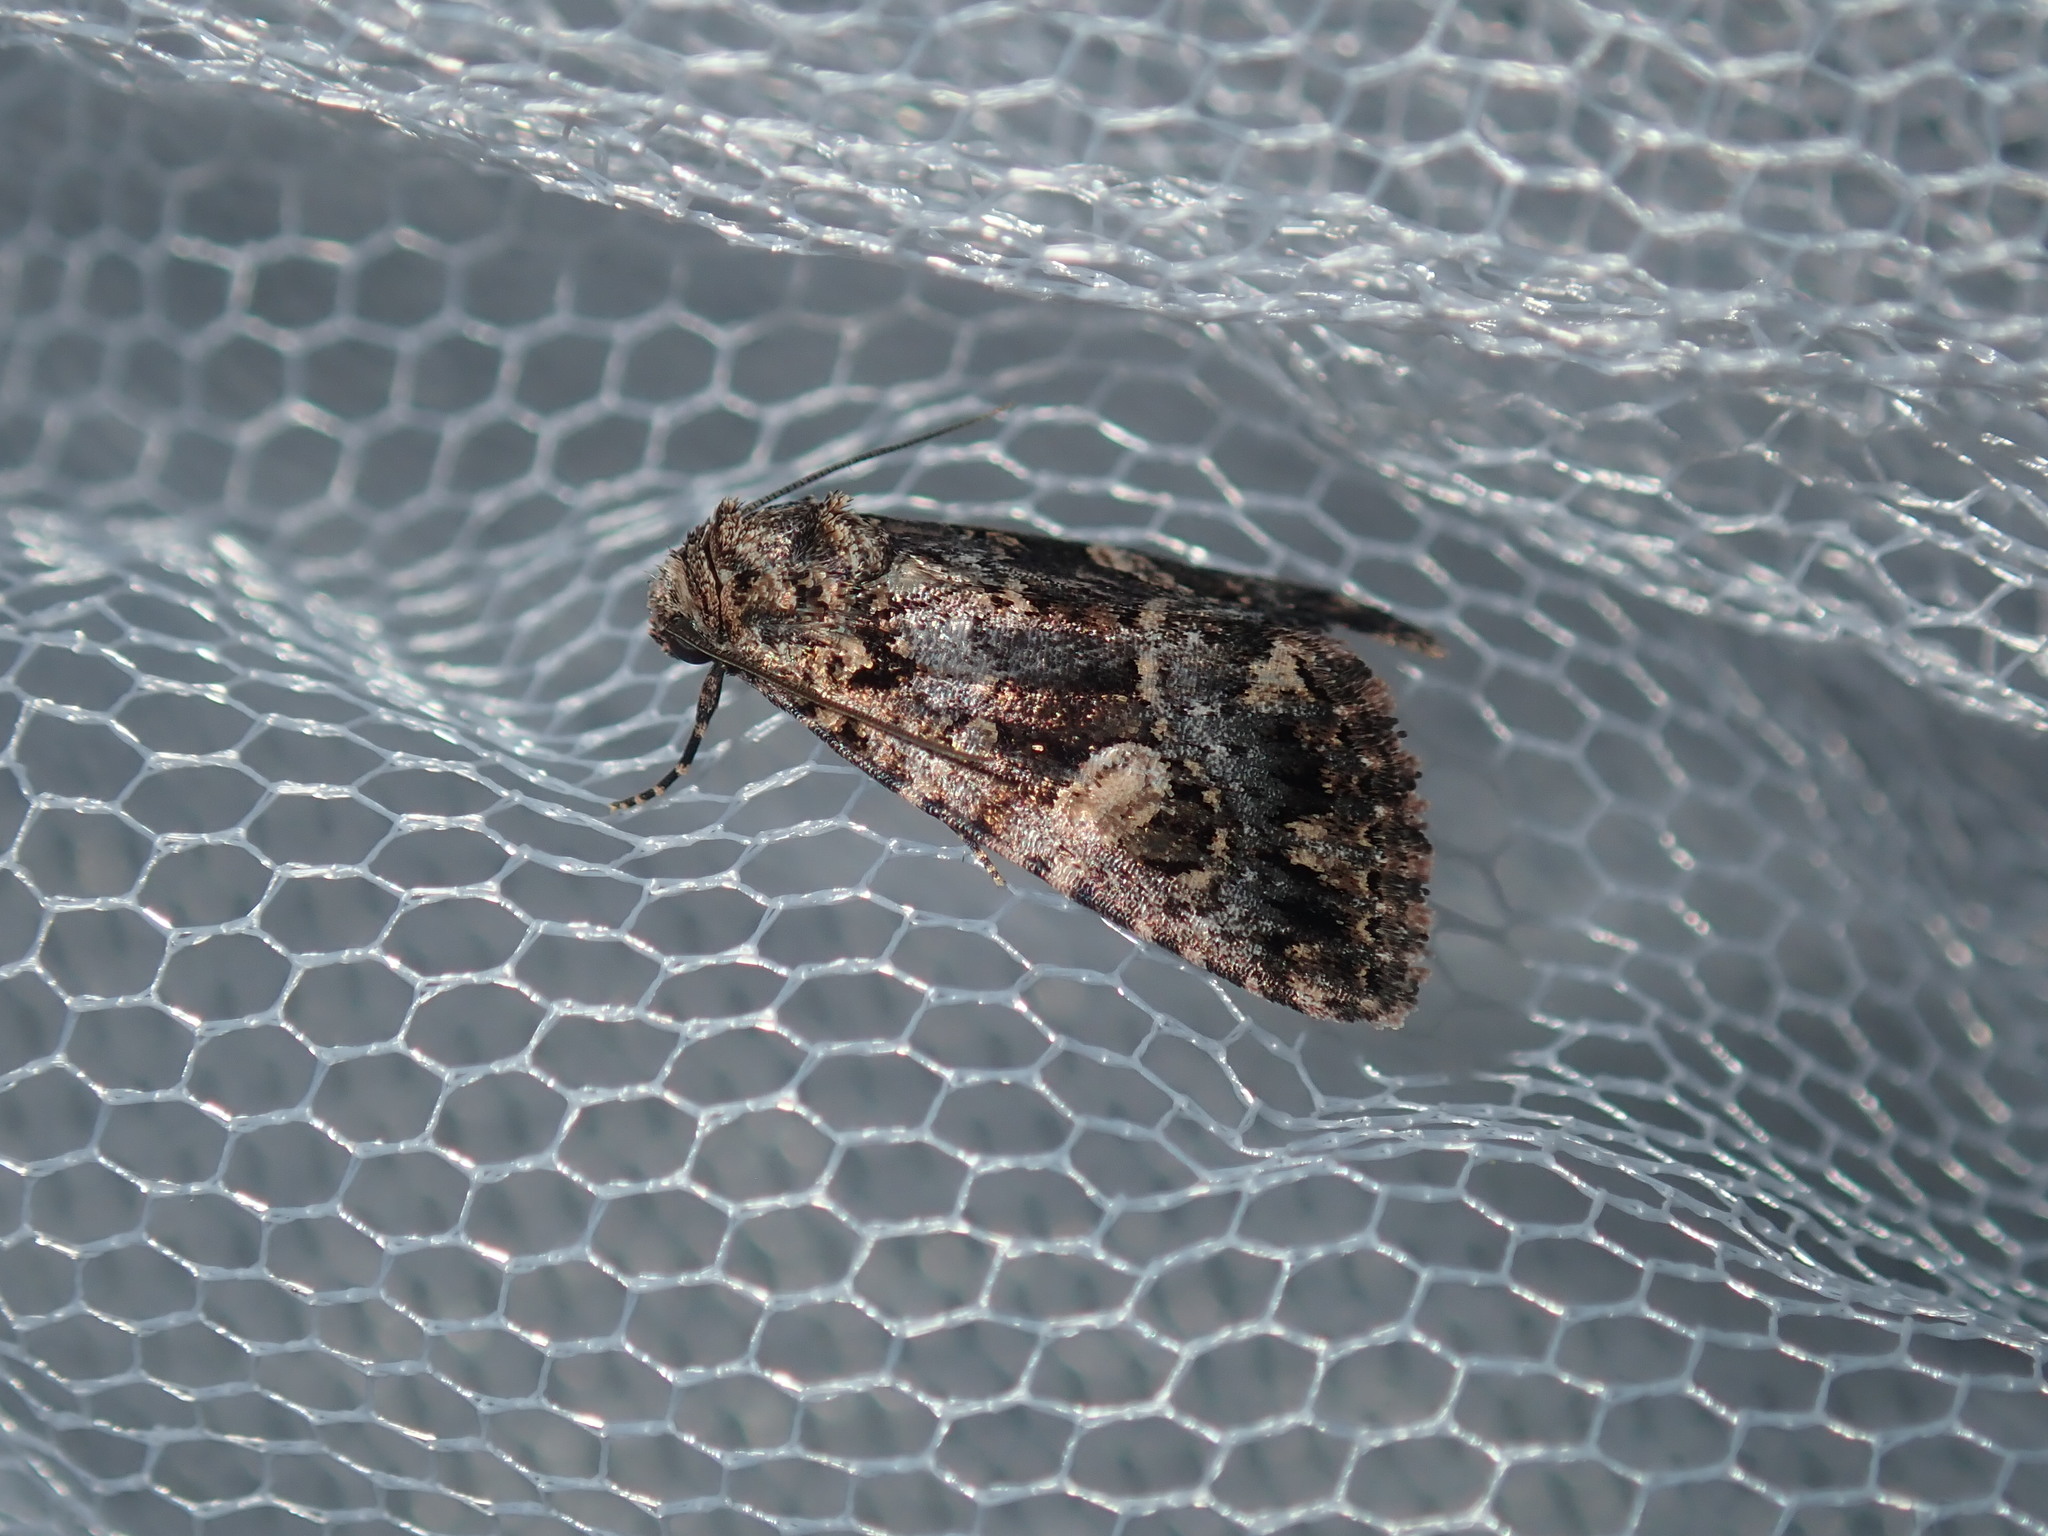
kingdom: Animalia
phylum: Arthropoda
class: Insecta
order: Lepidoptera
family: Noctuidae
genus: Condica
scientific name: Condica
